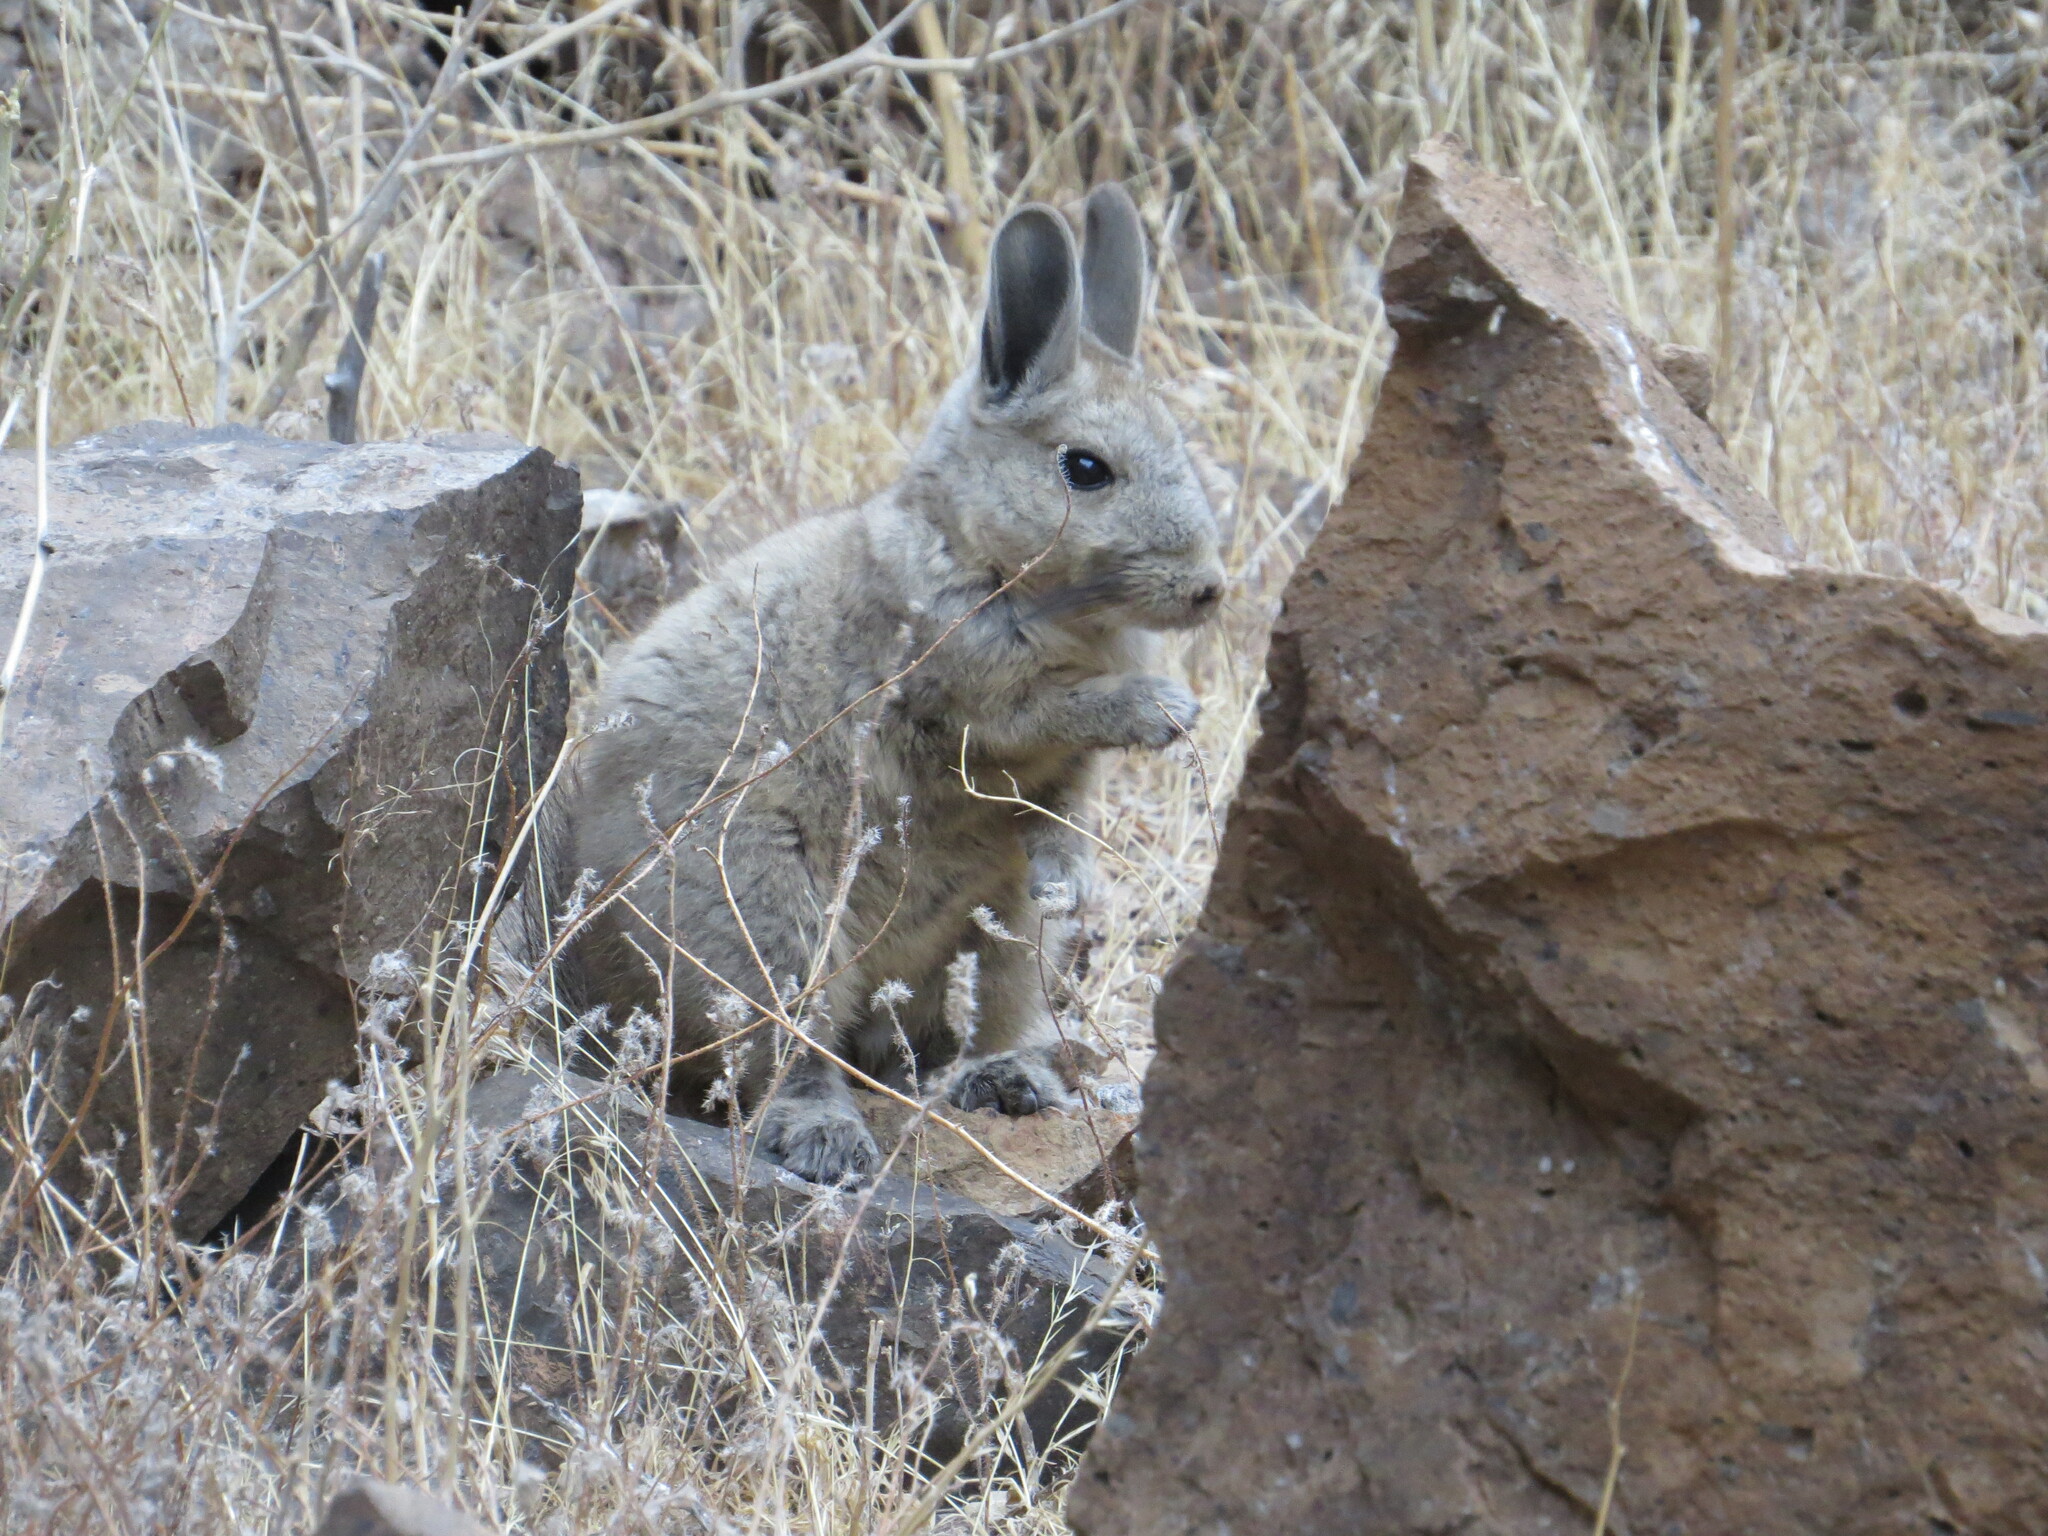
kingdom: Animalia
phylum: Chordata
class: Mammalia
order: Rodentia
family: Chinchillidae
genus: Lagidium
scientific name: Lagidium viscacia
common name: Southern viscacha
